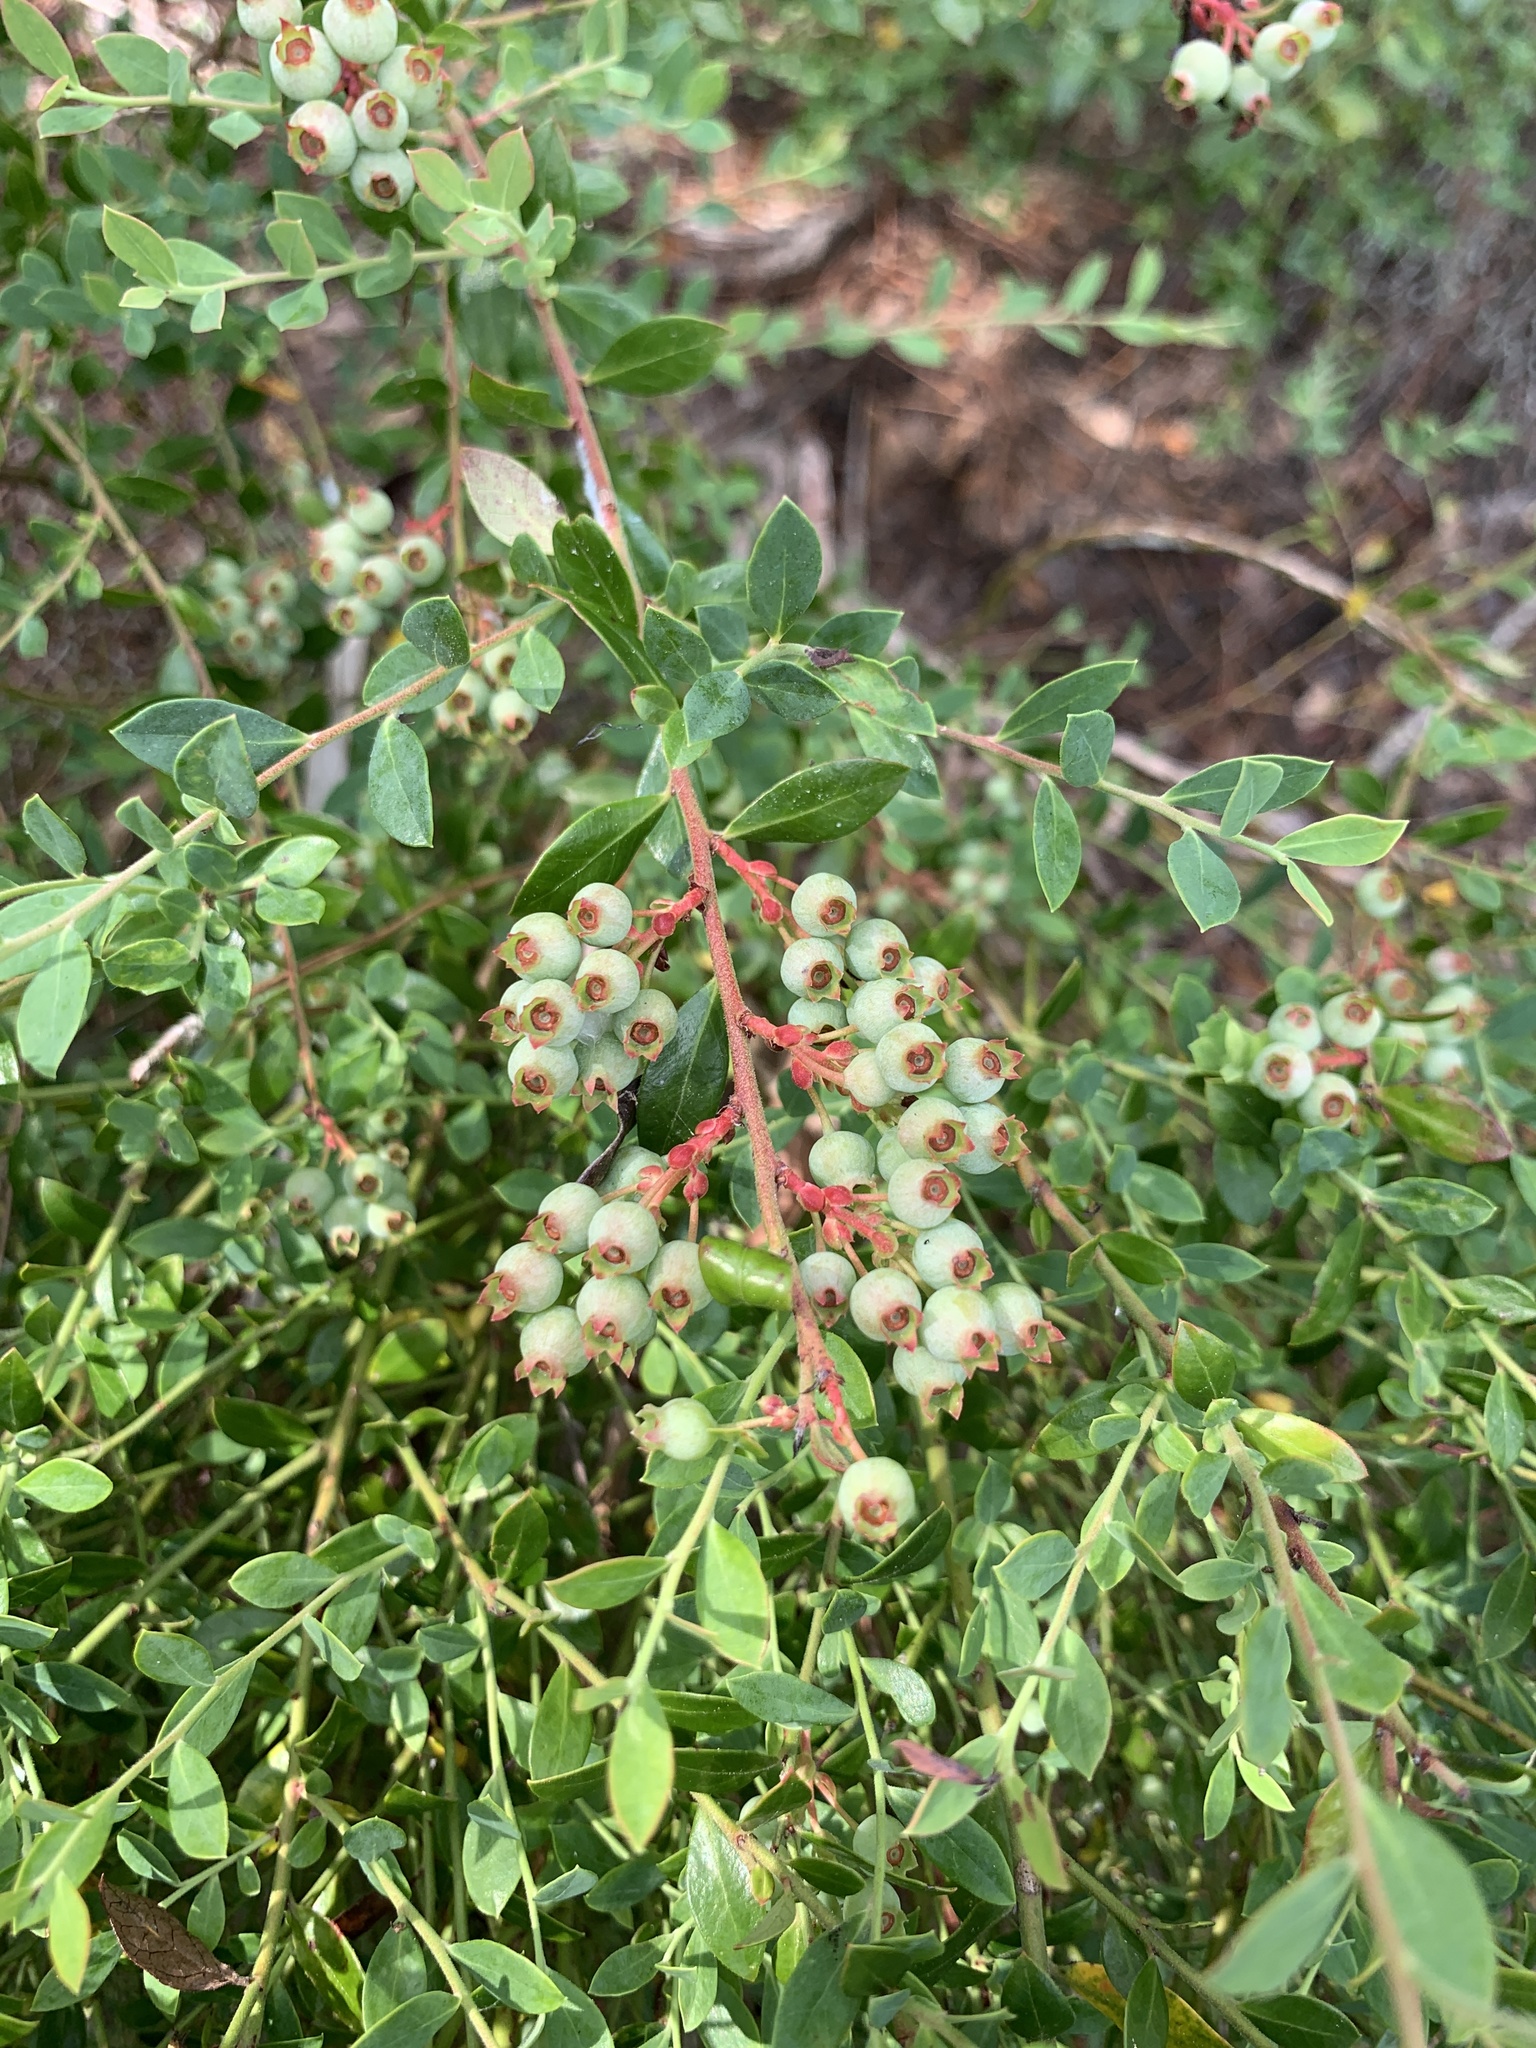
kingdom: Plantae
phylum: Tracheophyta
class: Magnoliopsida
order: Ericales
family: Ericaceae
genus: Vaccinium
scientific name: Vaccinium darrowii
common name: Darrow's blueberry
